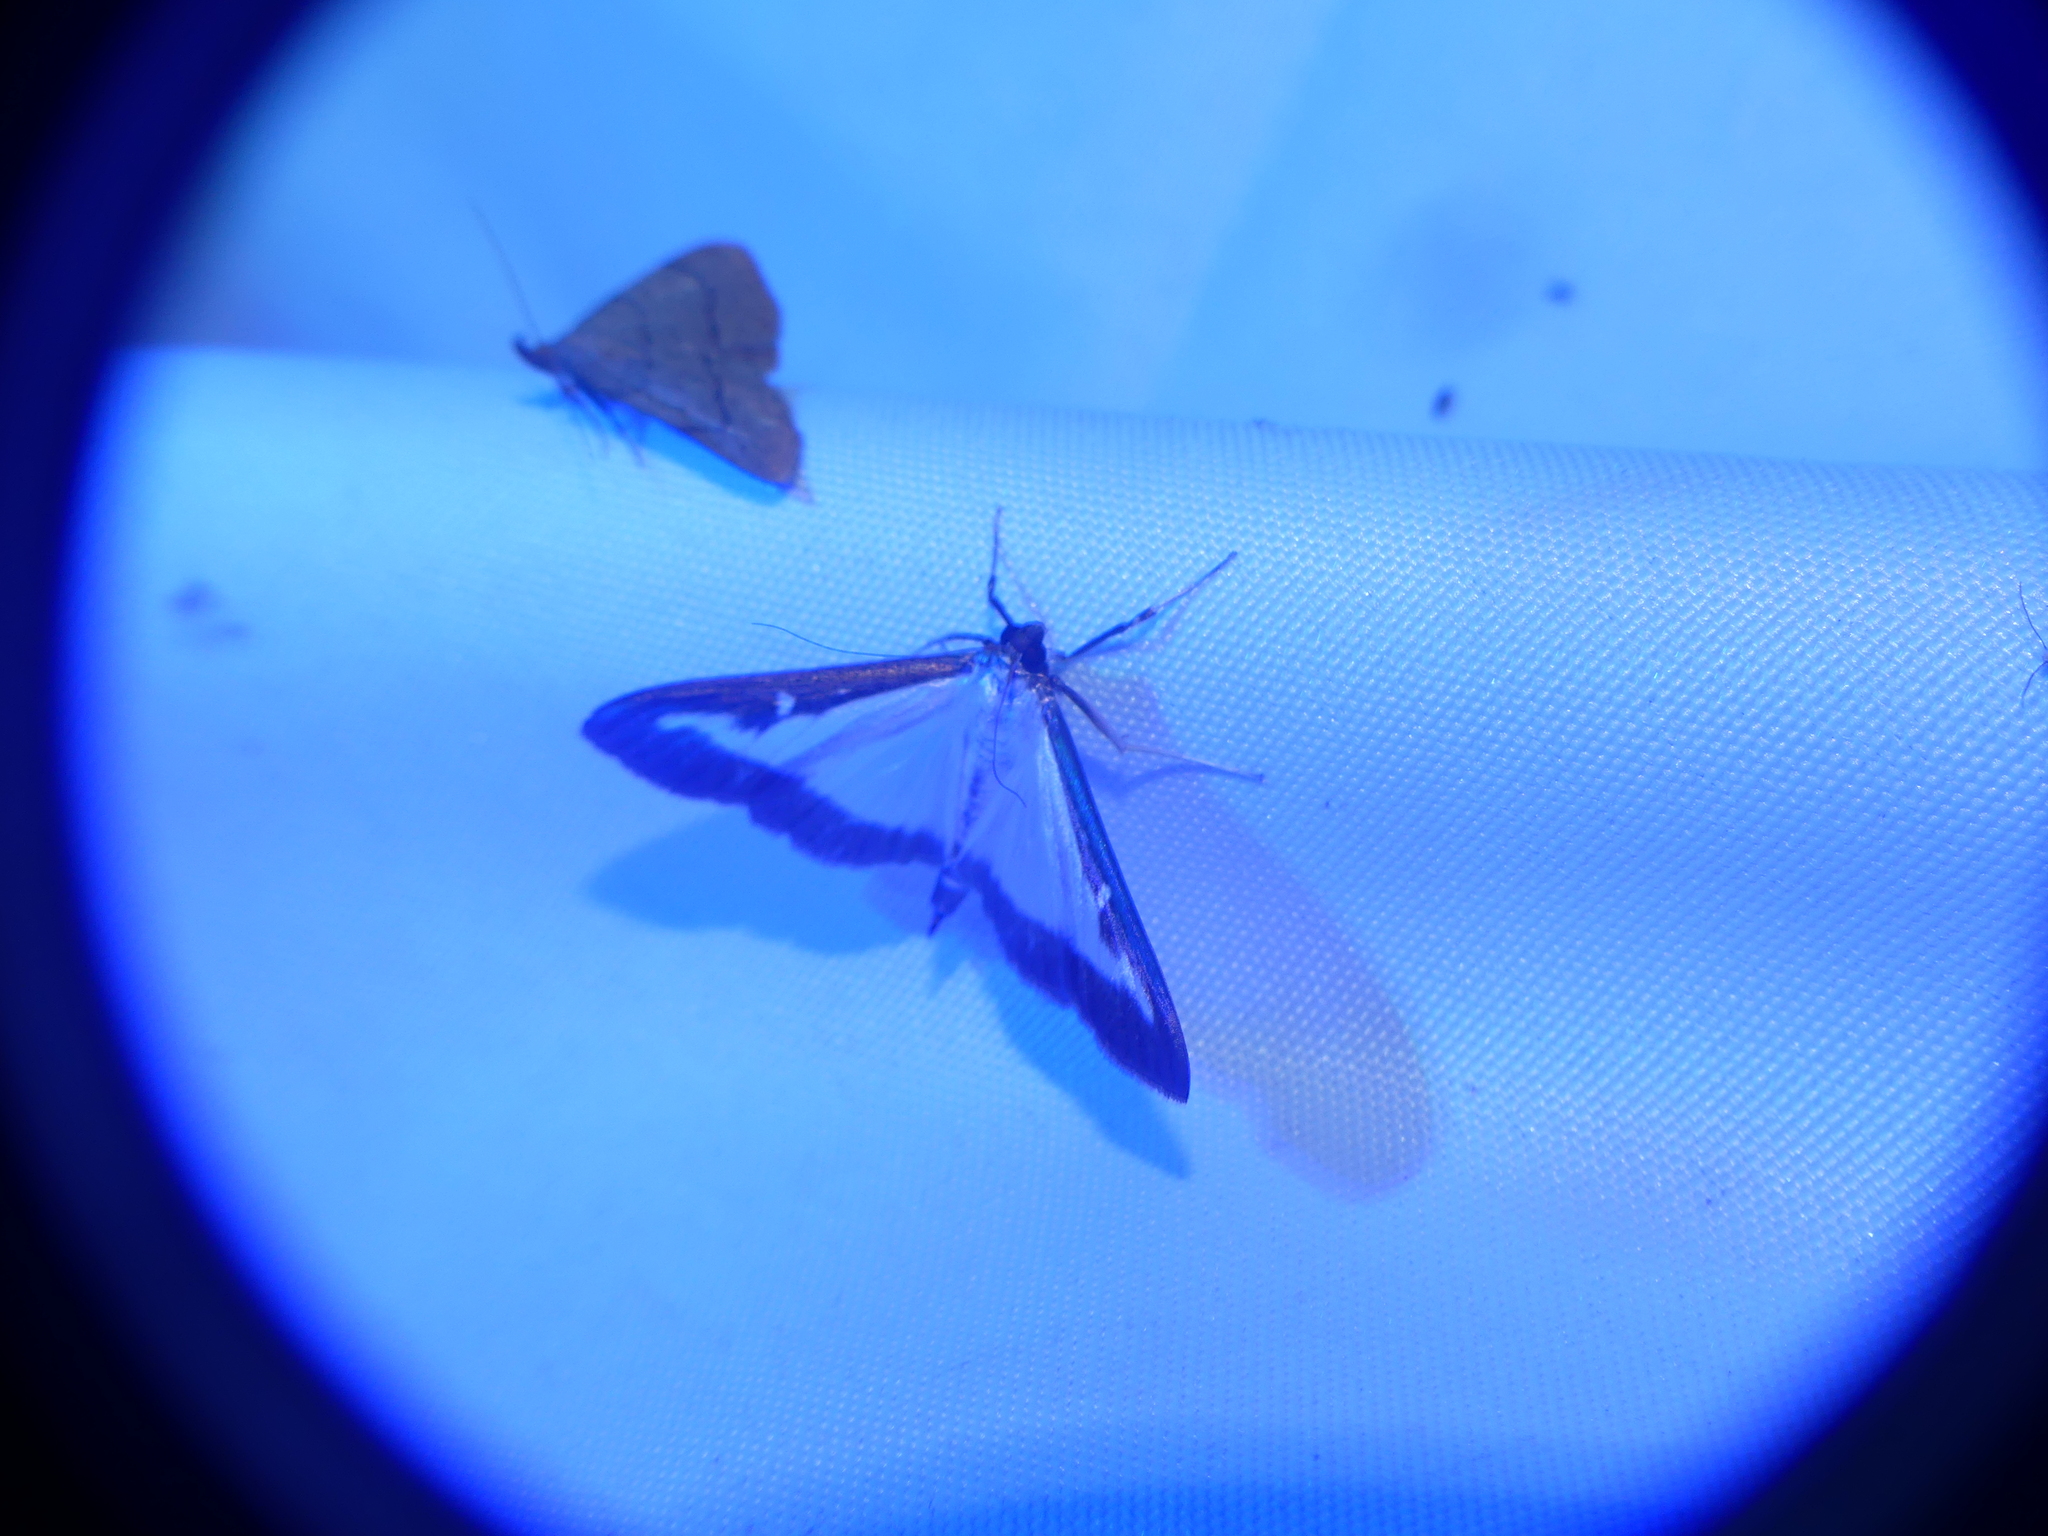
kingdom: Animalia
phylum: Arthropoda
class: Insecta
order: Lepidoptera
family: Crambidae
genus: Cydalima
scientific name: Cydalima perspectalis
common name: Box tree moth
